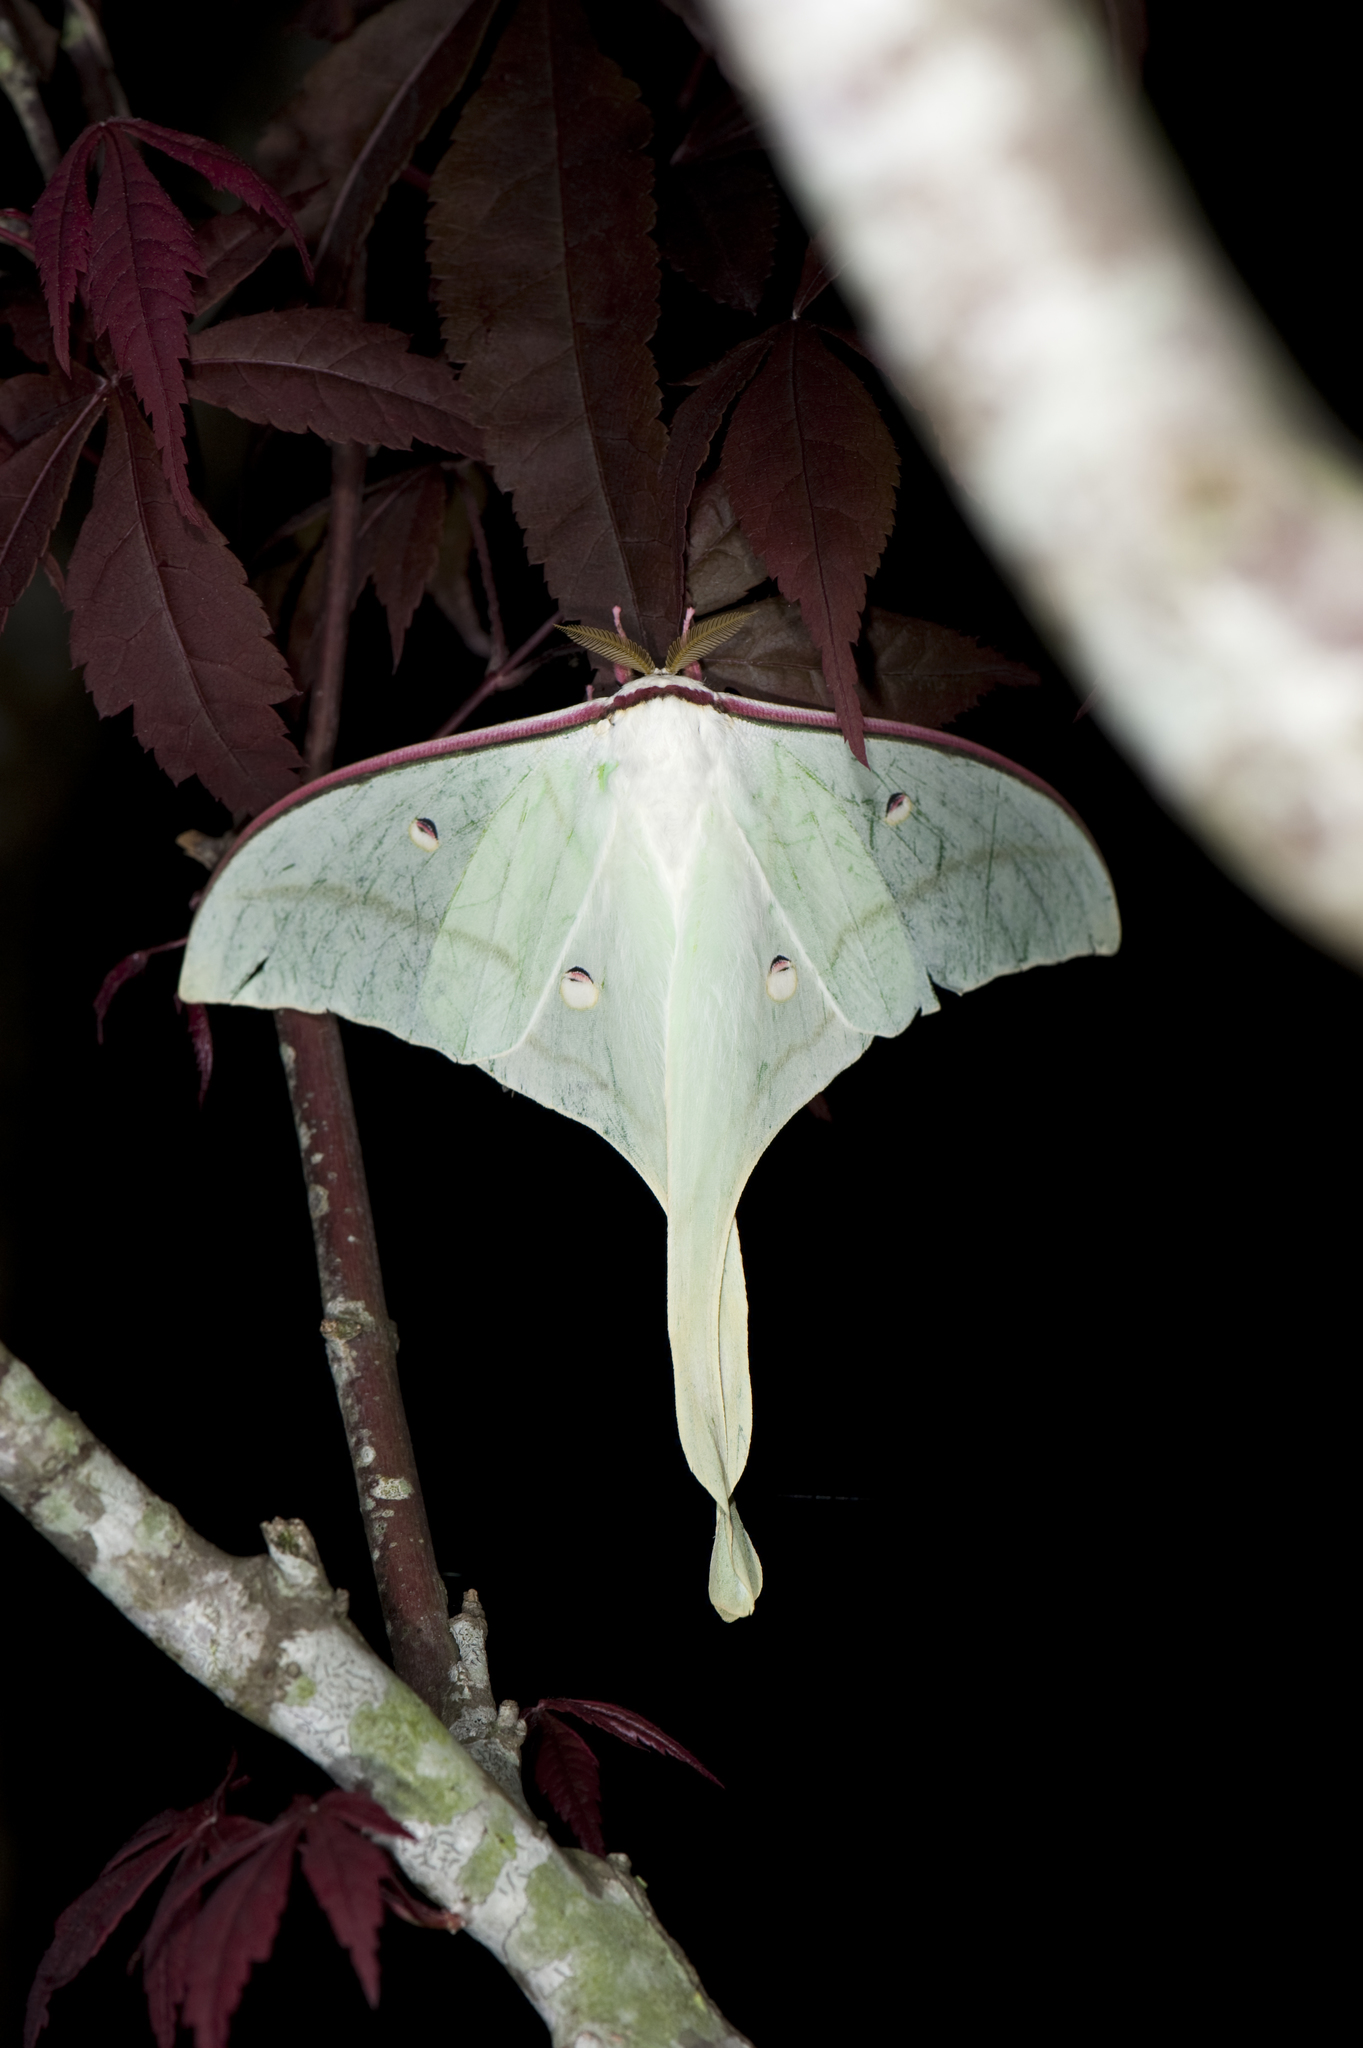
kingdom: Animalia
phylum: Arthropoda
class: Insecta
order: Lepidoptera
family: Saturniidae
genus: Actias
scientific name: Actias ningpoana
